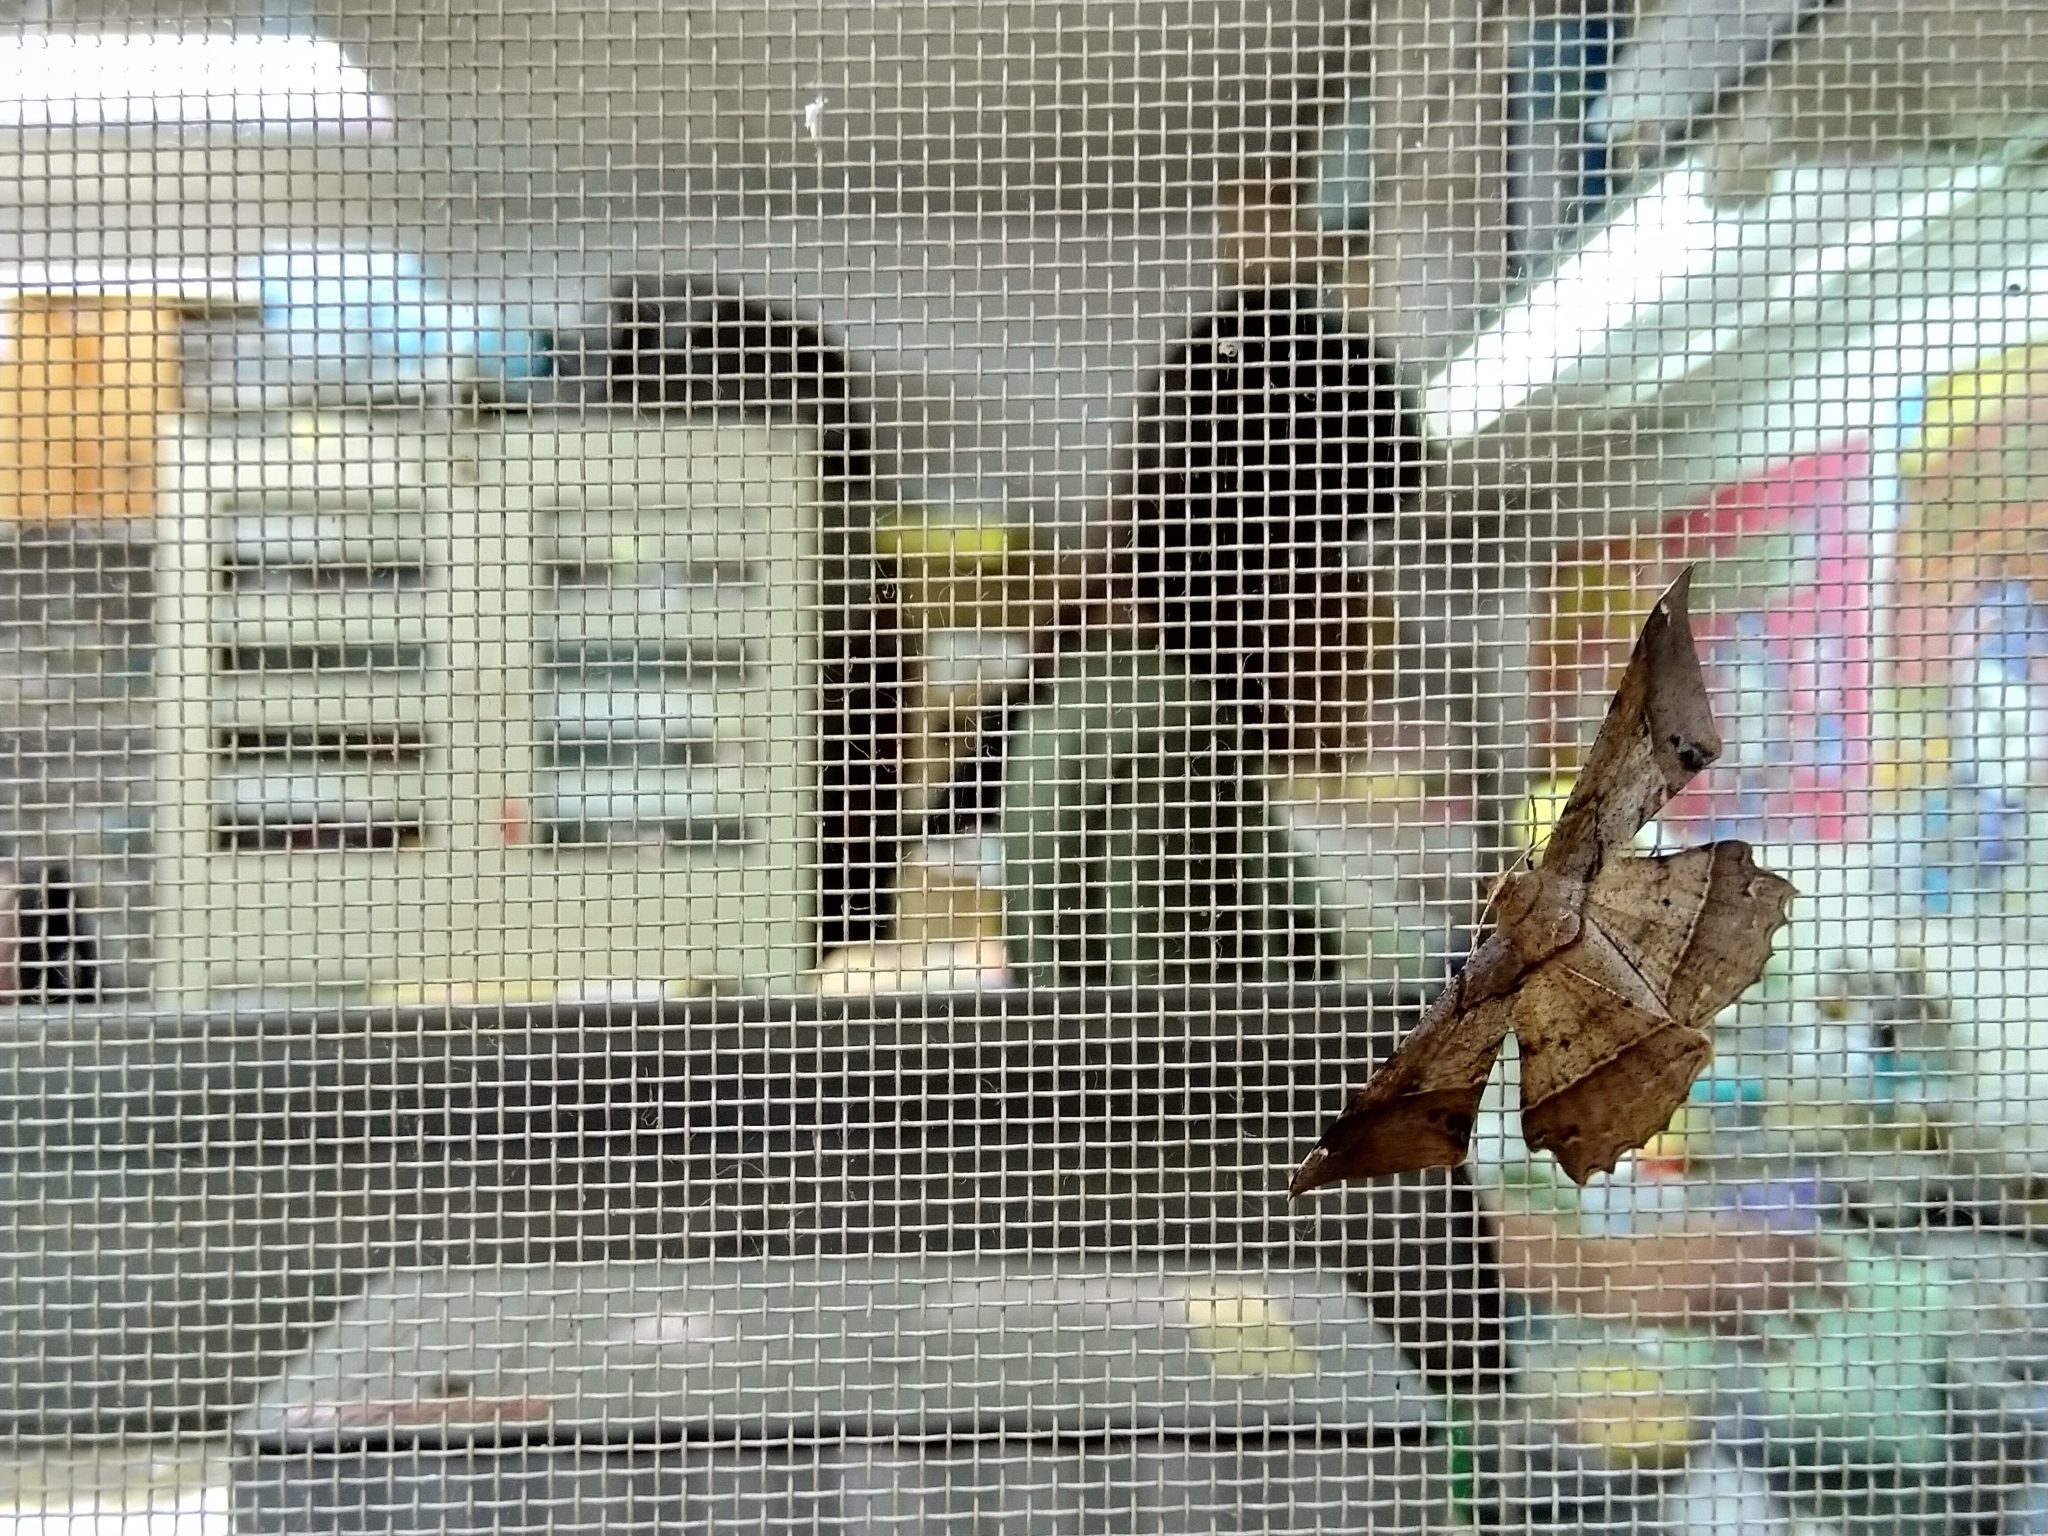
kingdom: Animalia
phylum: Arthropoda
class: Insecta
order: Lepidoptera
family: Geometridae
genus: Krananda
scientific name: Krananda latimarginaria
